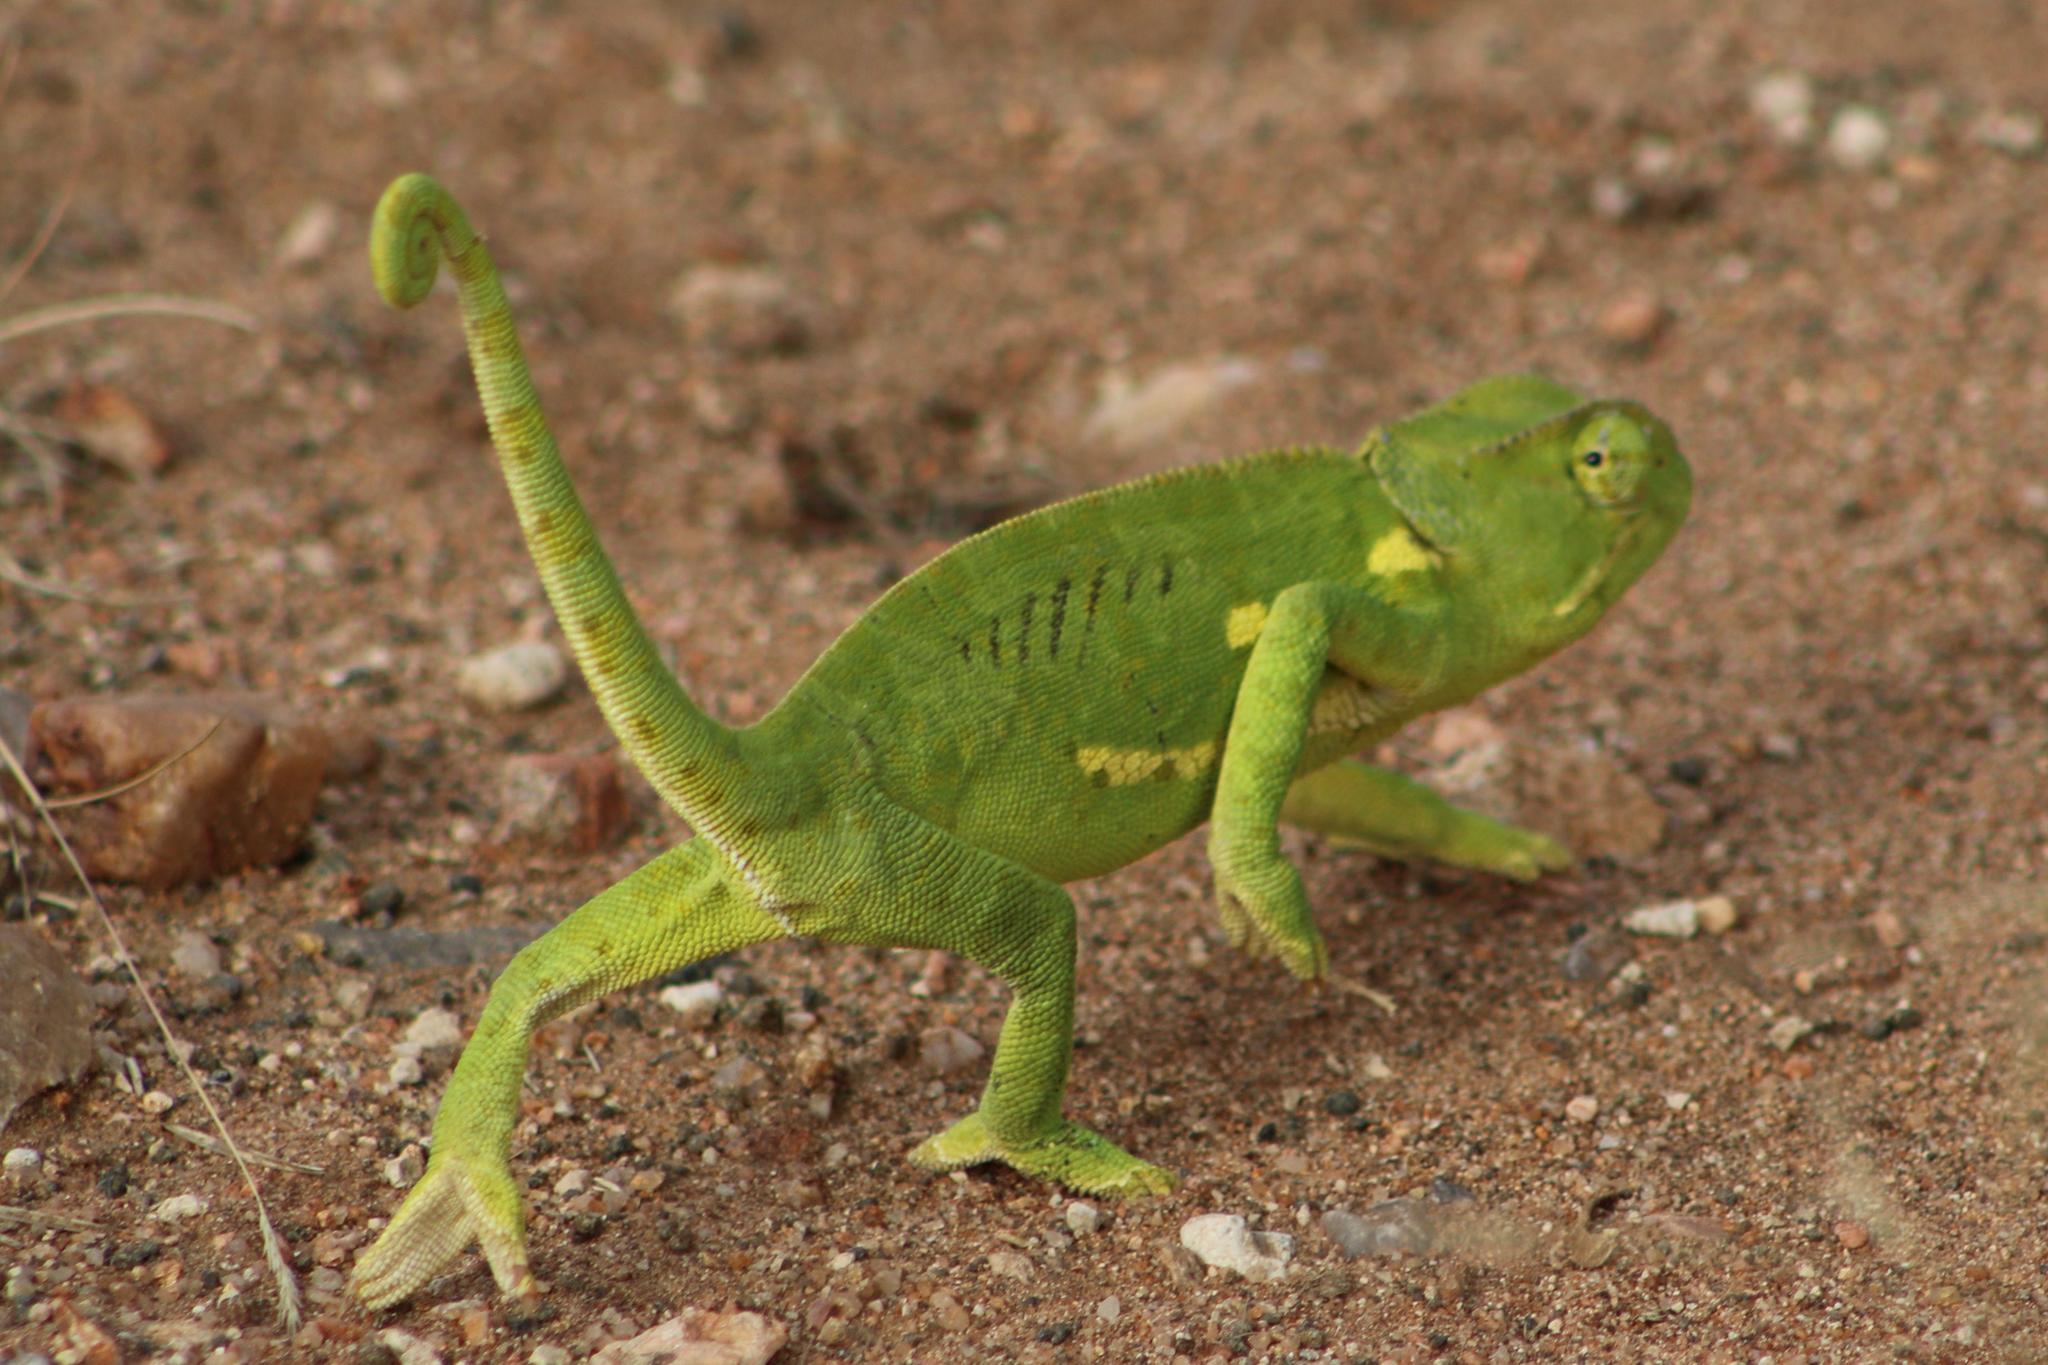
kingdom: Animalia
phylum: Chordata
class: Squamata
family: Chamaeleonidae
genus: Chamaeleo
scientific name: Chamaeleo dilepis
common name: Flapneck chameleon
